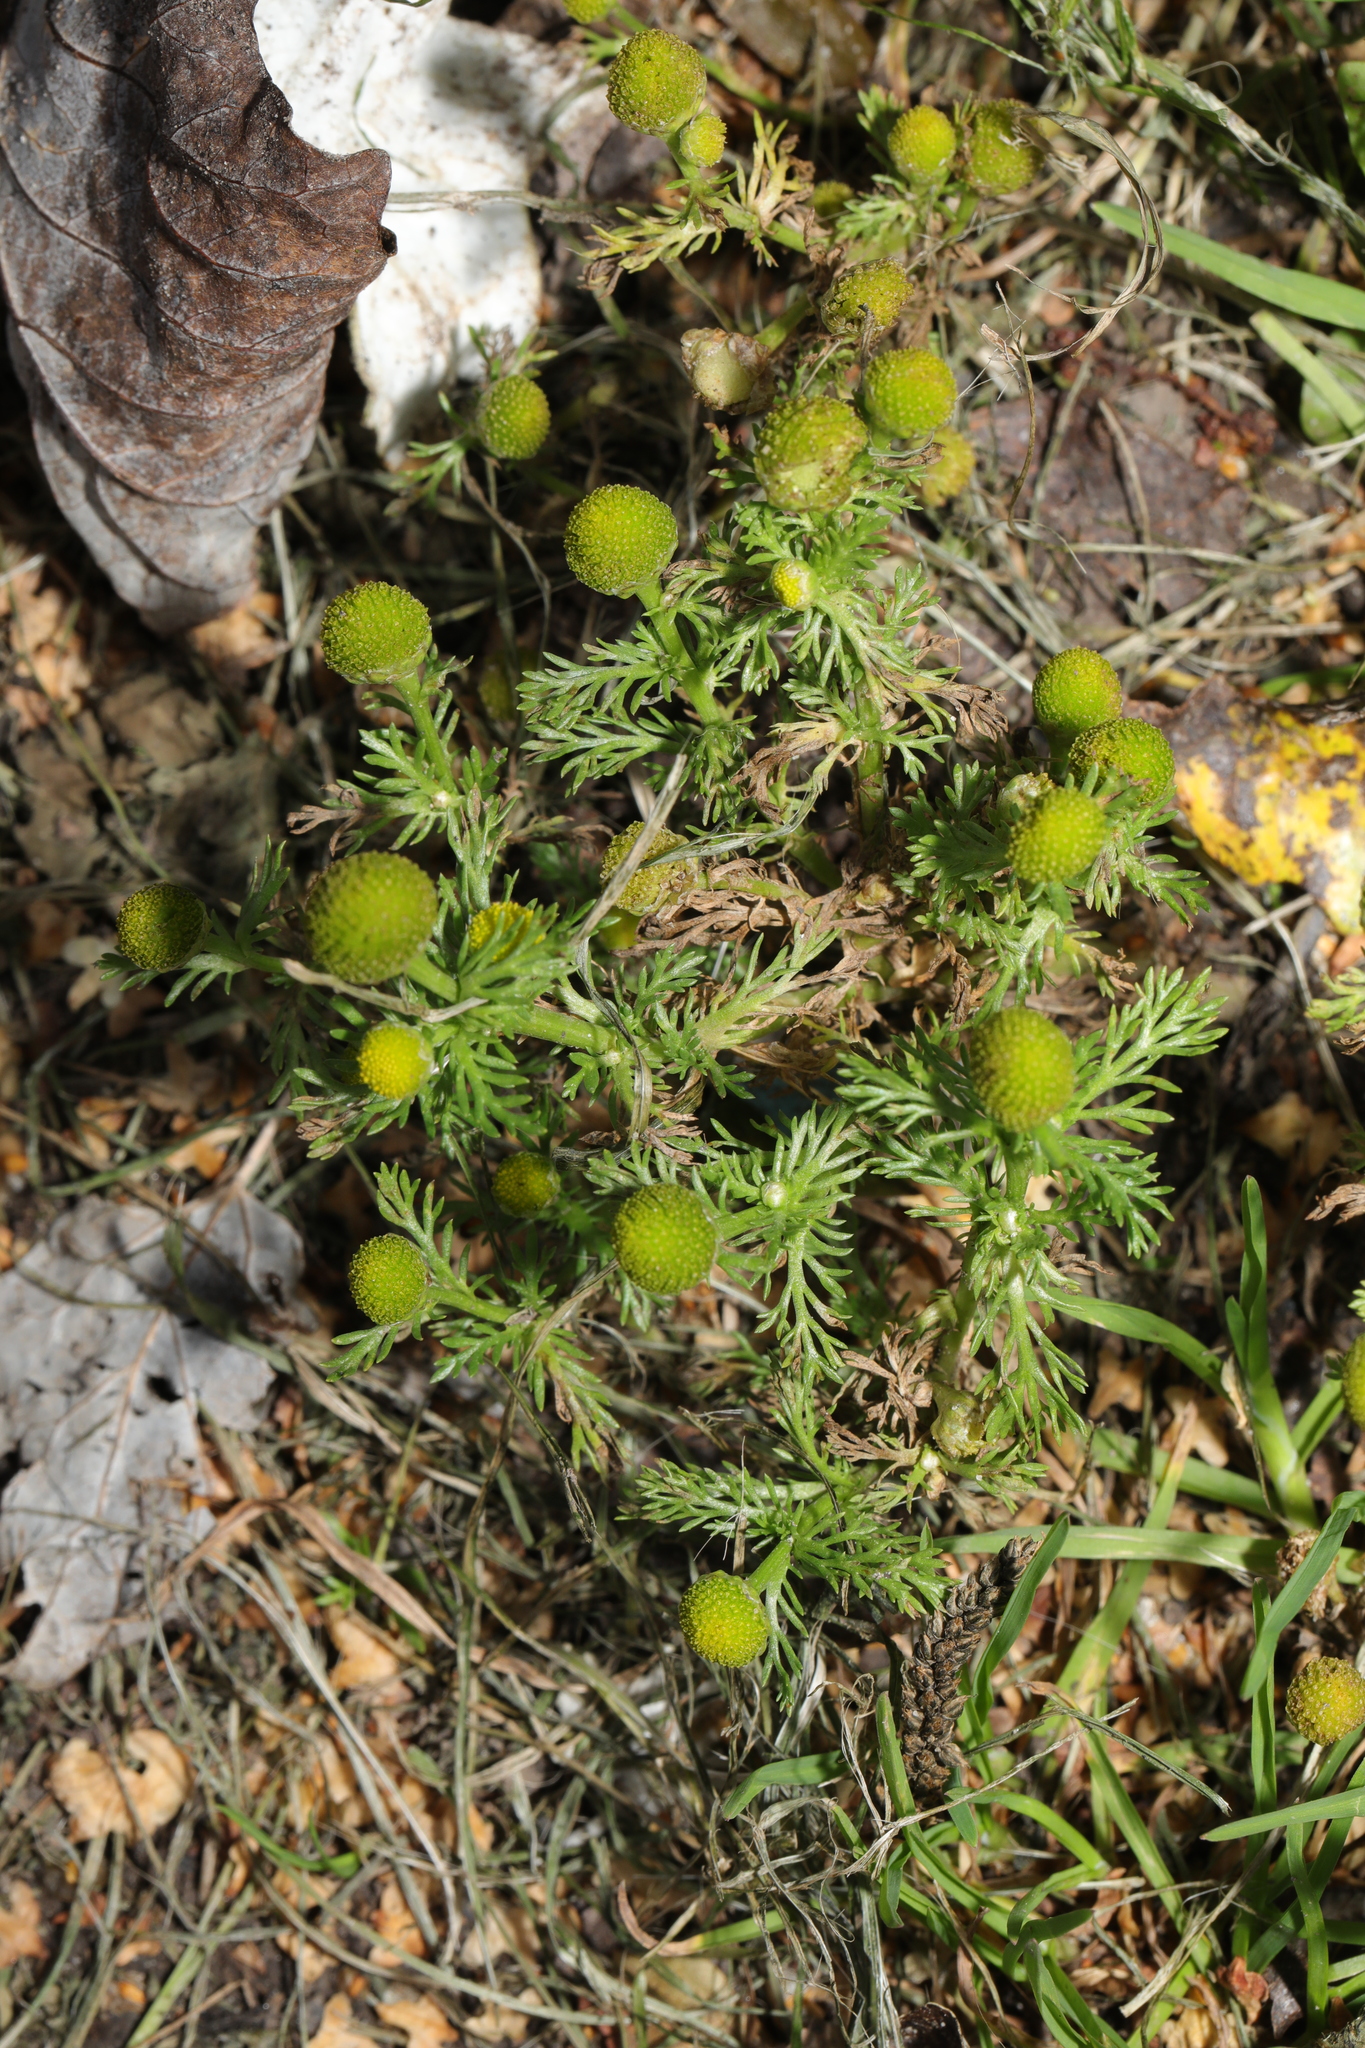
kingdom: Plantae
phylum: Tracheophyta
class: Magnoliopsida
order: Asterales
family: Asteraceae
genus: Matricaria
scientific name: Matricaria discoidea
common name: Disc mayweed
